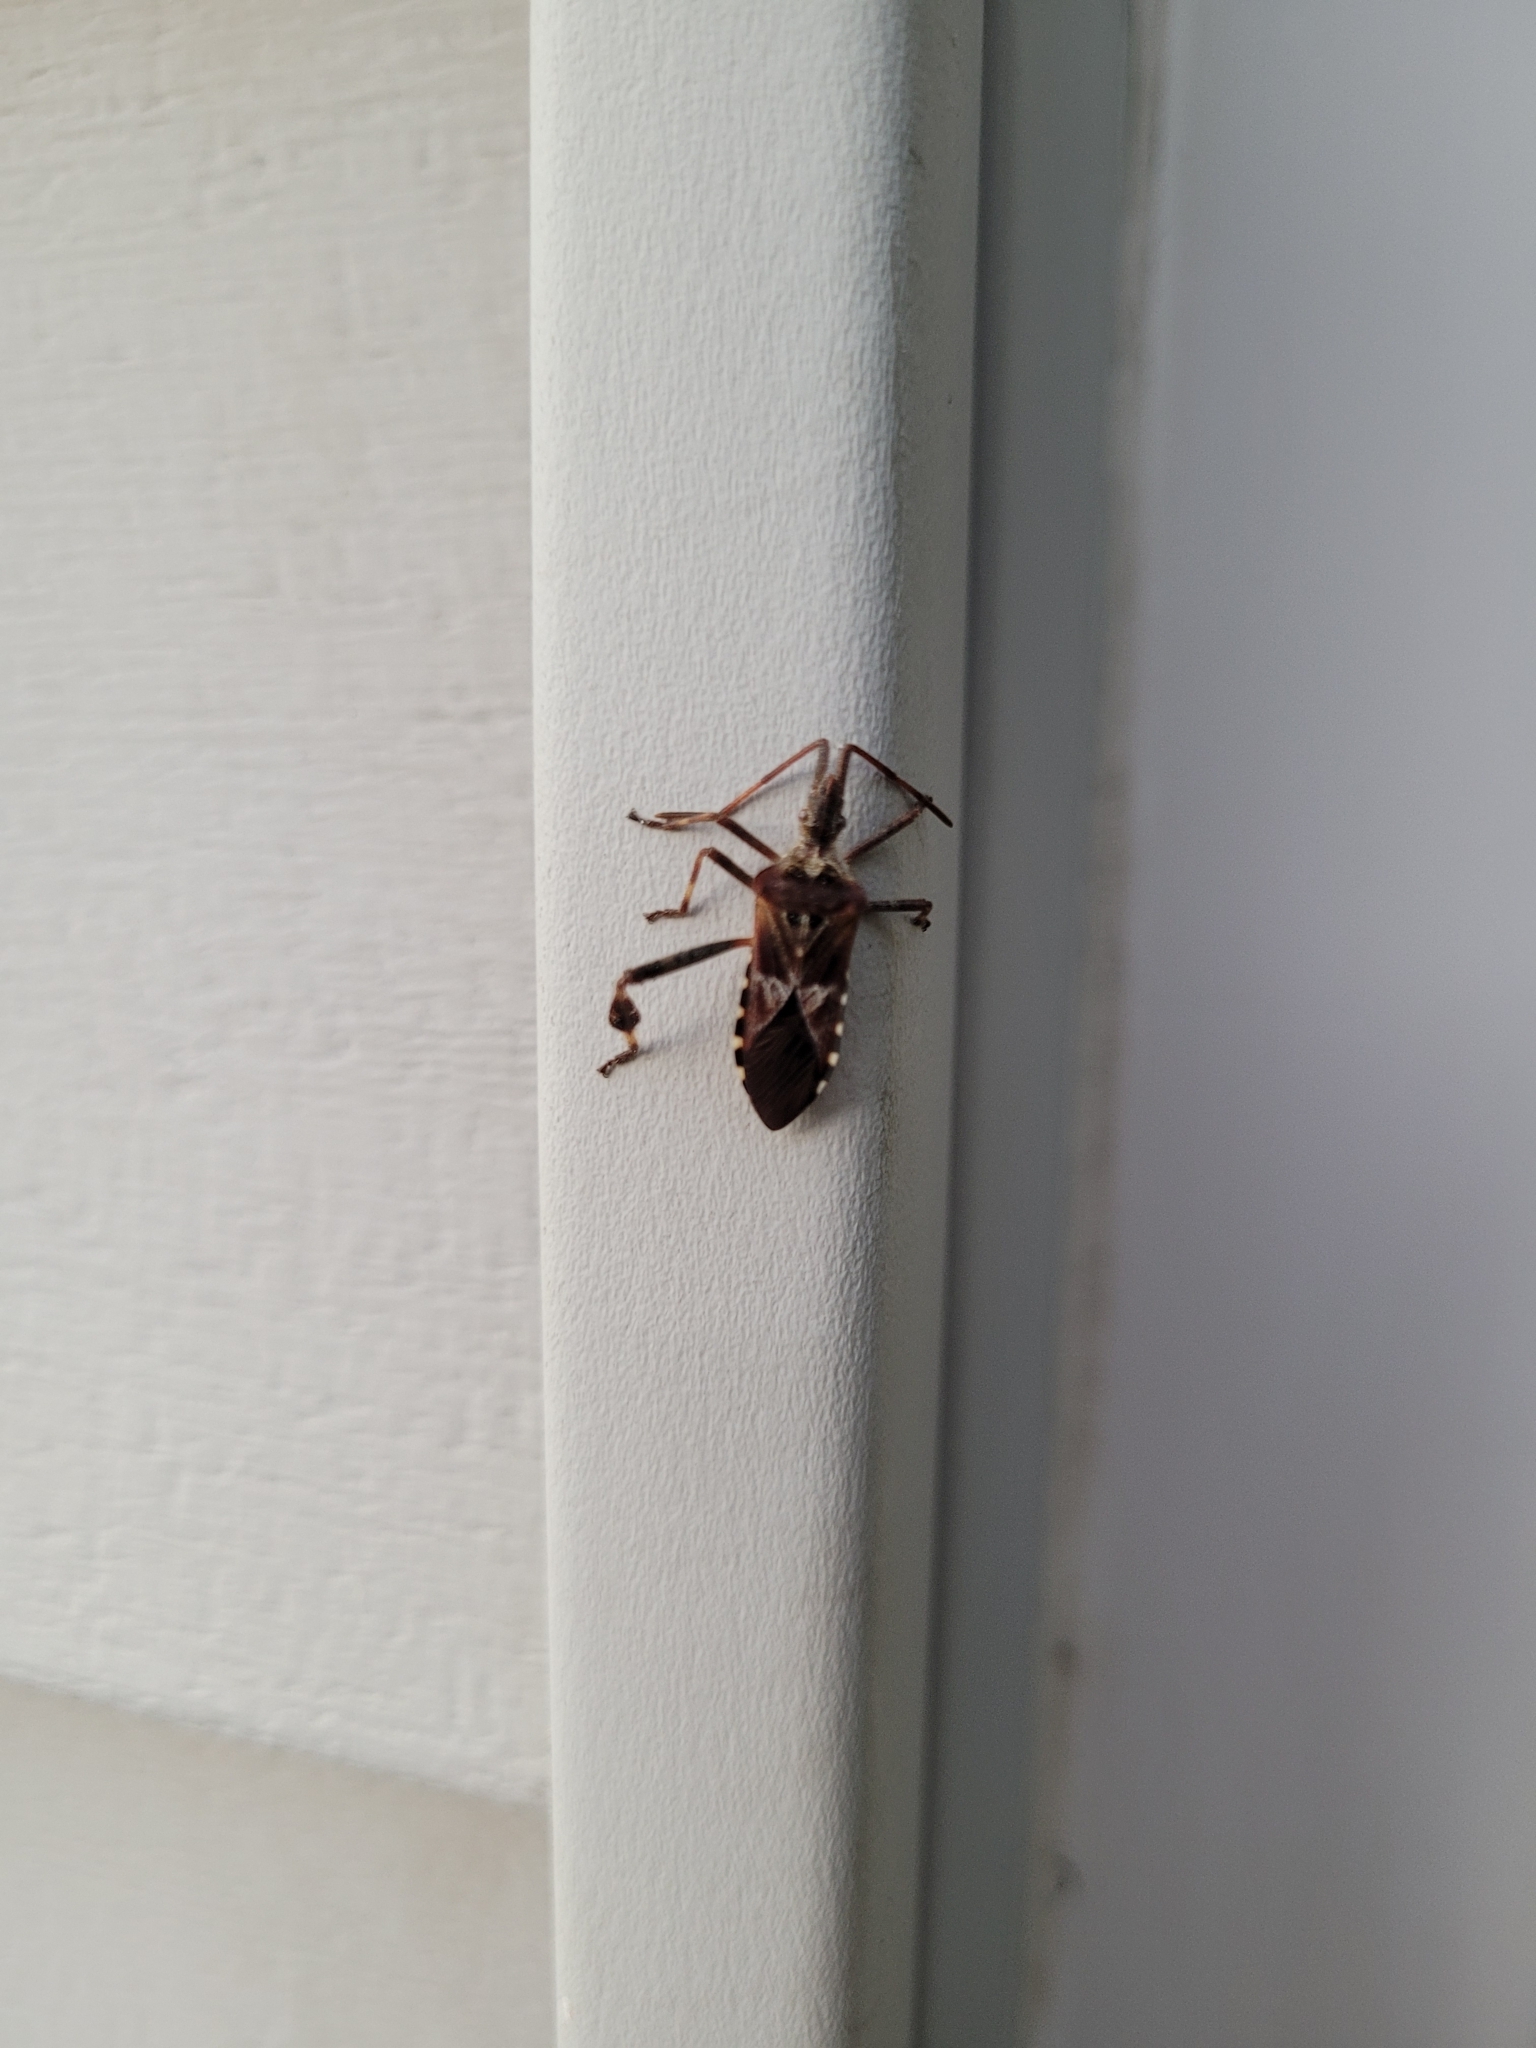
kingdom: Animalia
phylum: Arthropoda
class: Insecta
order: Hemiptera
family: Coreidae
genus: Leptoglossus
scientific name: Leptoglossus occidentalis
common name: Western conifer-seed bug
